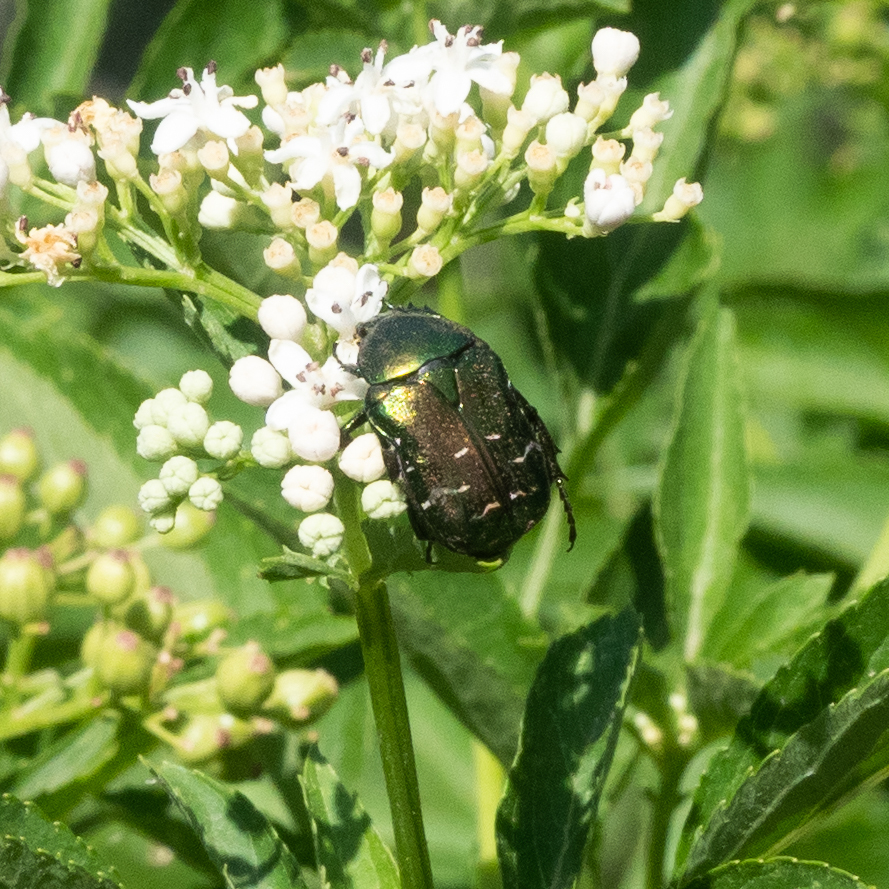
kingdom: Animalia
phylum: Arthropoda
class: Insecta
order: Coleoptera
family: Scarabaeidae
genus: Cetonia
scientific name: Cetonia aurata
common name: Rose chafer
